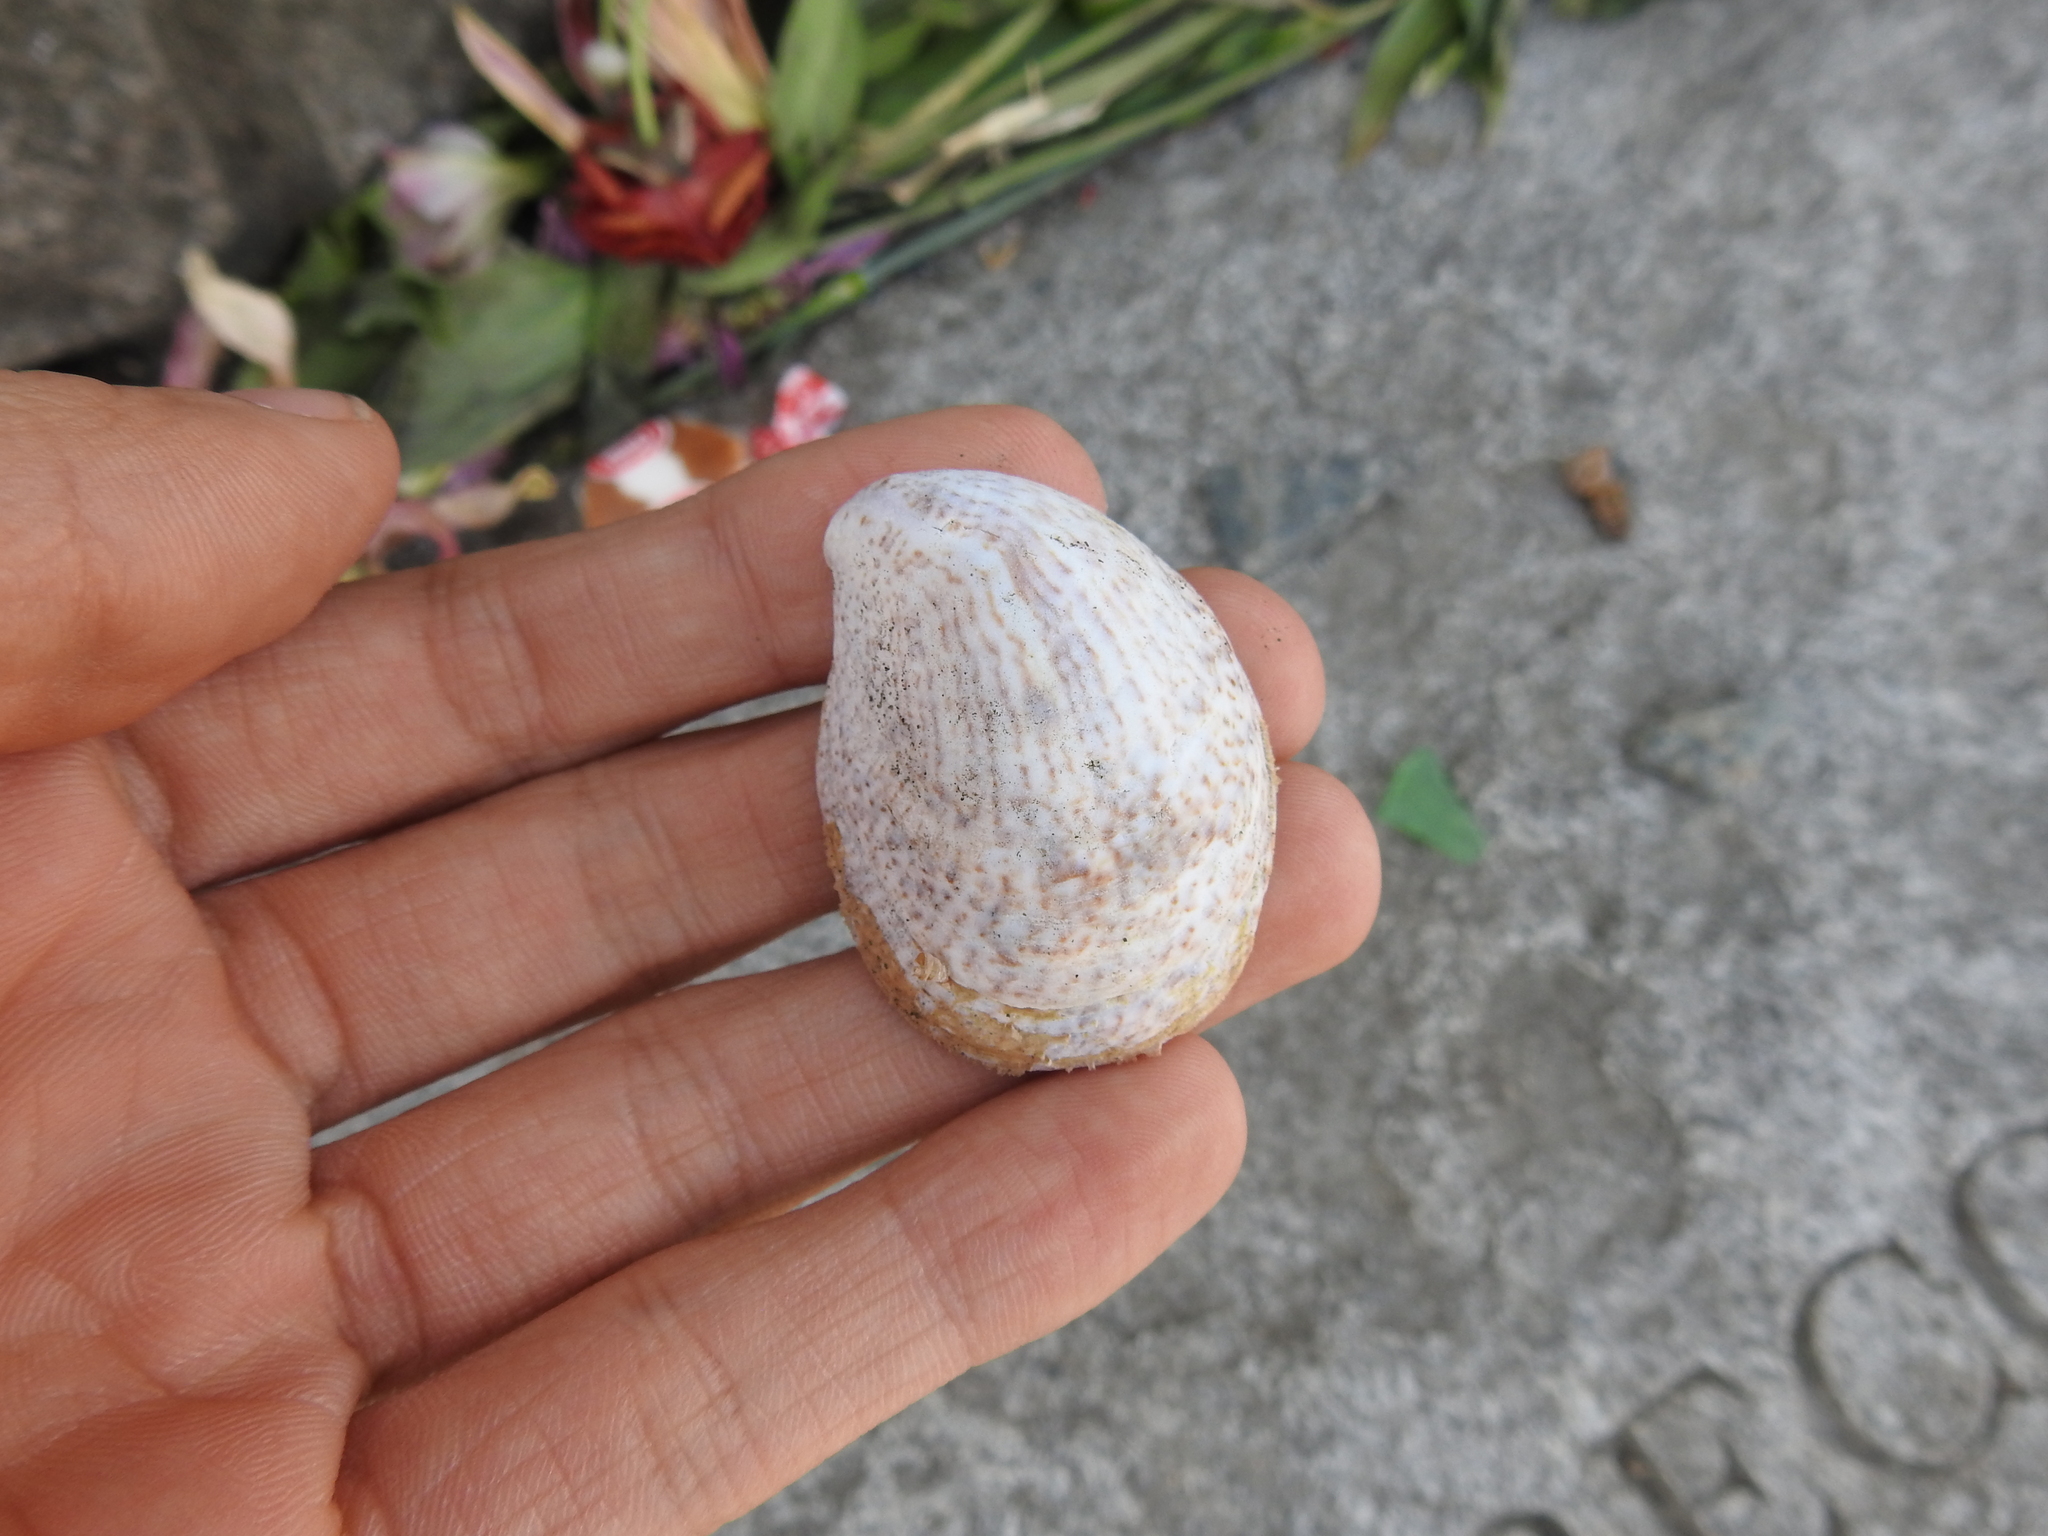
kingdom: Animalia
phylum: Mollusca
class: Gastropoda
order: Littorinimorpha
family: Calyptraeidae
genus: Crepidula
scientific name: Crepidula fornicata
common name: Slipper limpet
